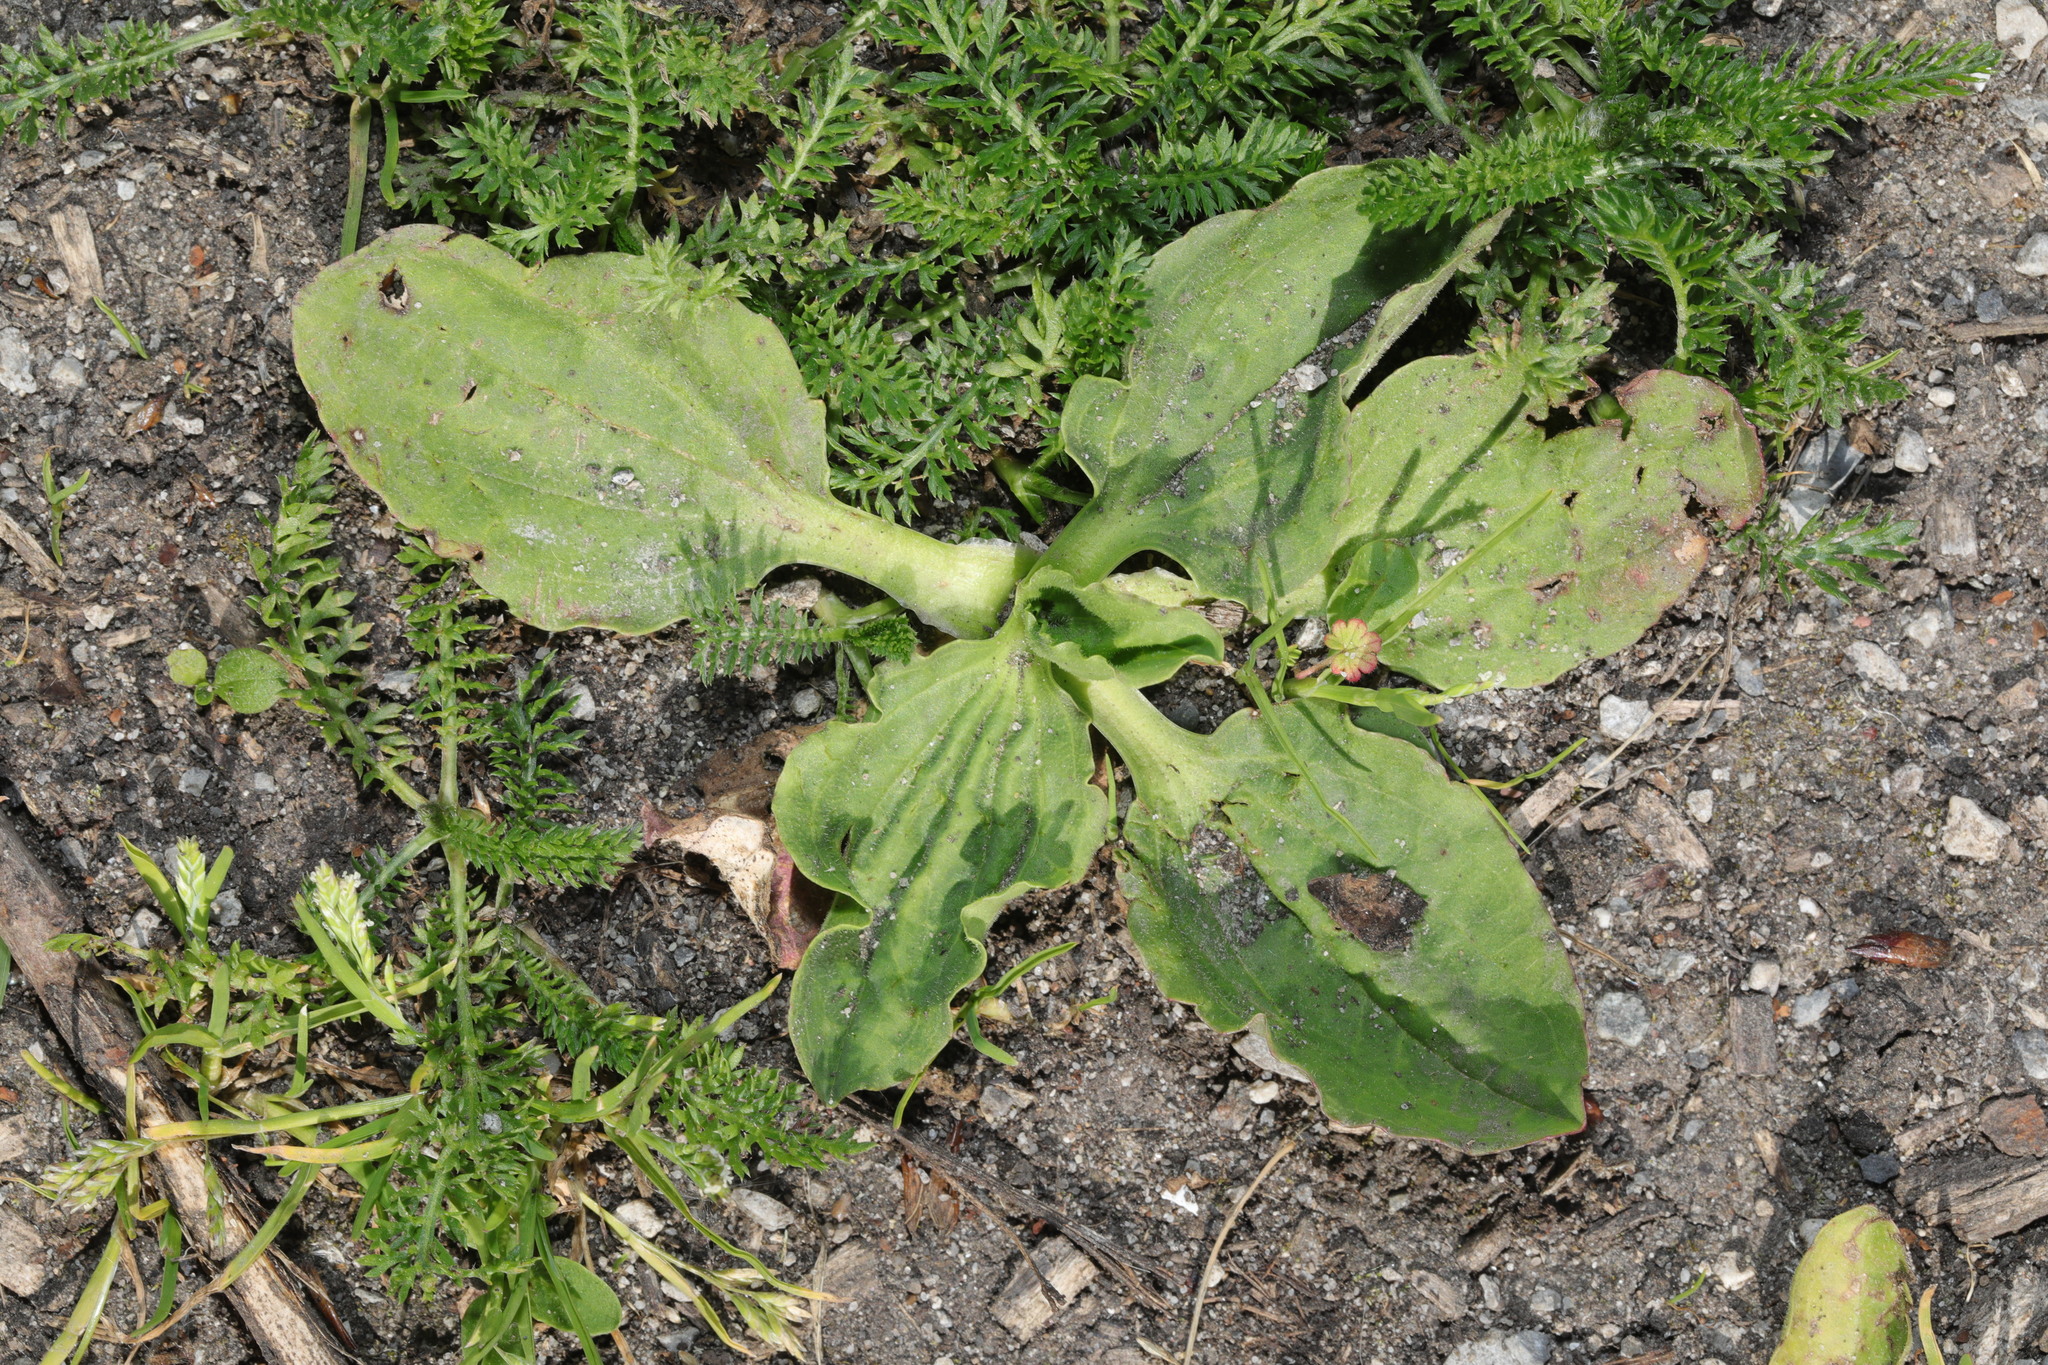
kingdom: Plantae
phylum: Tracheophyta
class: Magnoliopsida
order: Lamiales
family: Plantaginaceae
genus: Plantago
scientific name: Plantago major
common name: Common plantain
